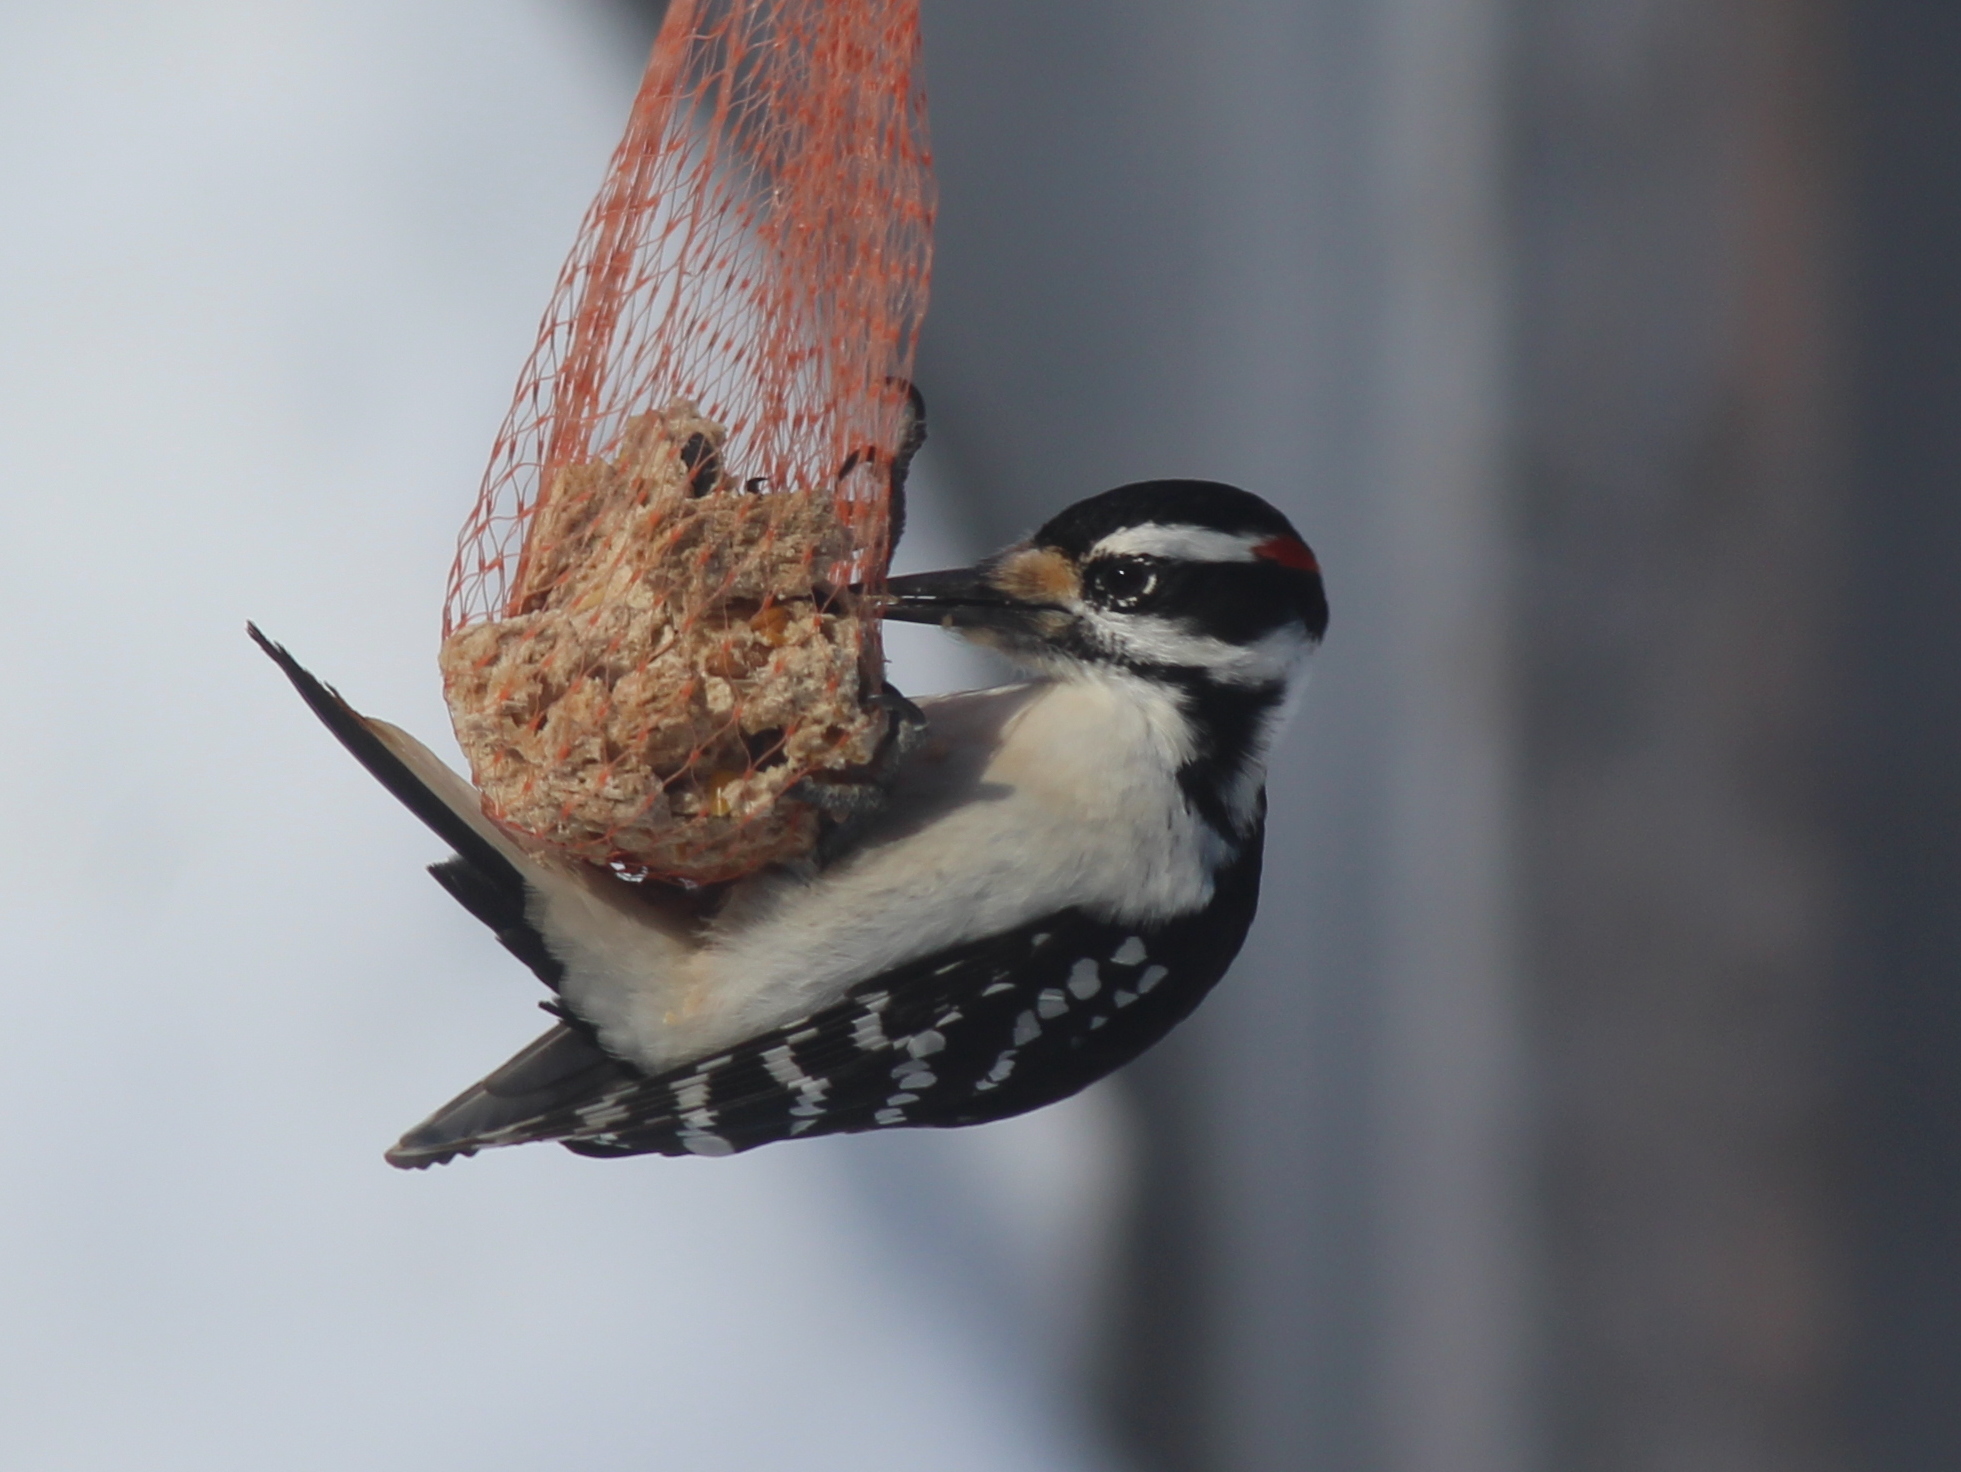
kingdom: Animalia
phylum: Chordata
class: Aves
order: Piciformes
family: Picidae
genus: Leuconotopicus
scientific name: Leuconotopicus villosus
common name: Hairy woodpecker
